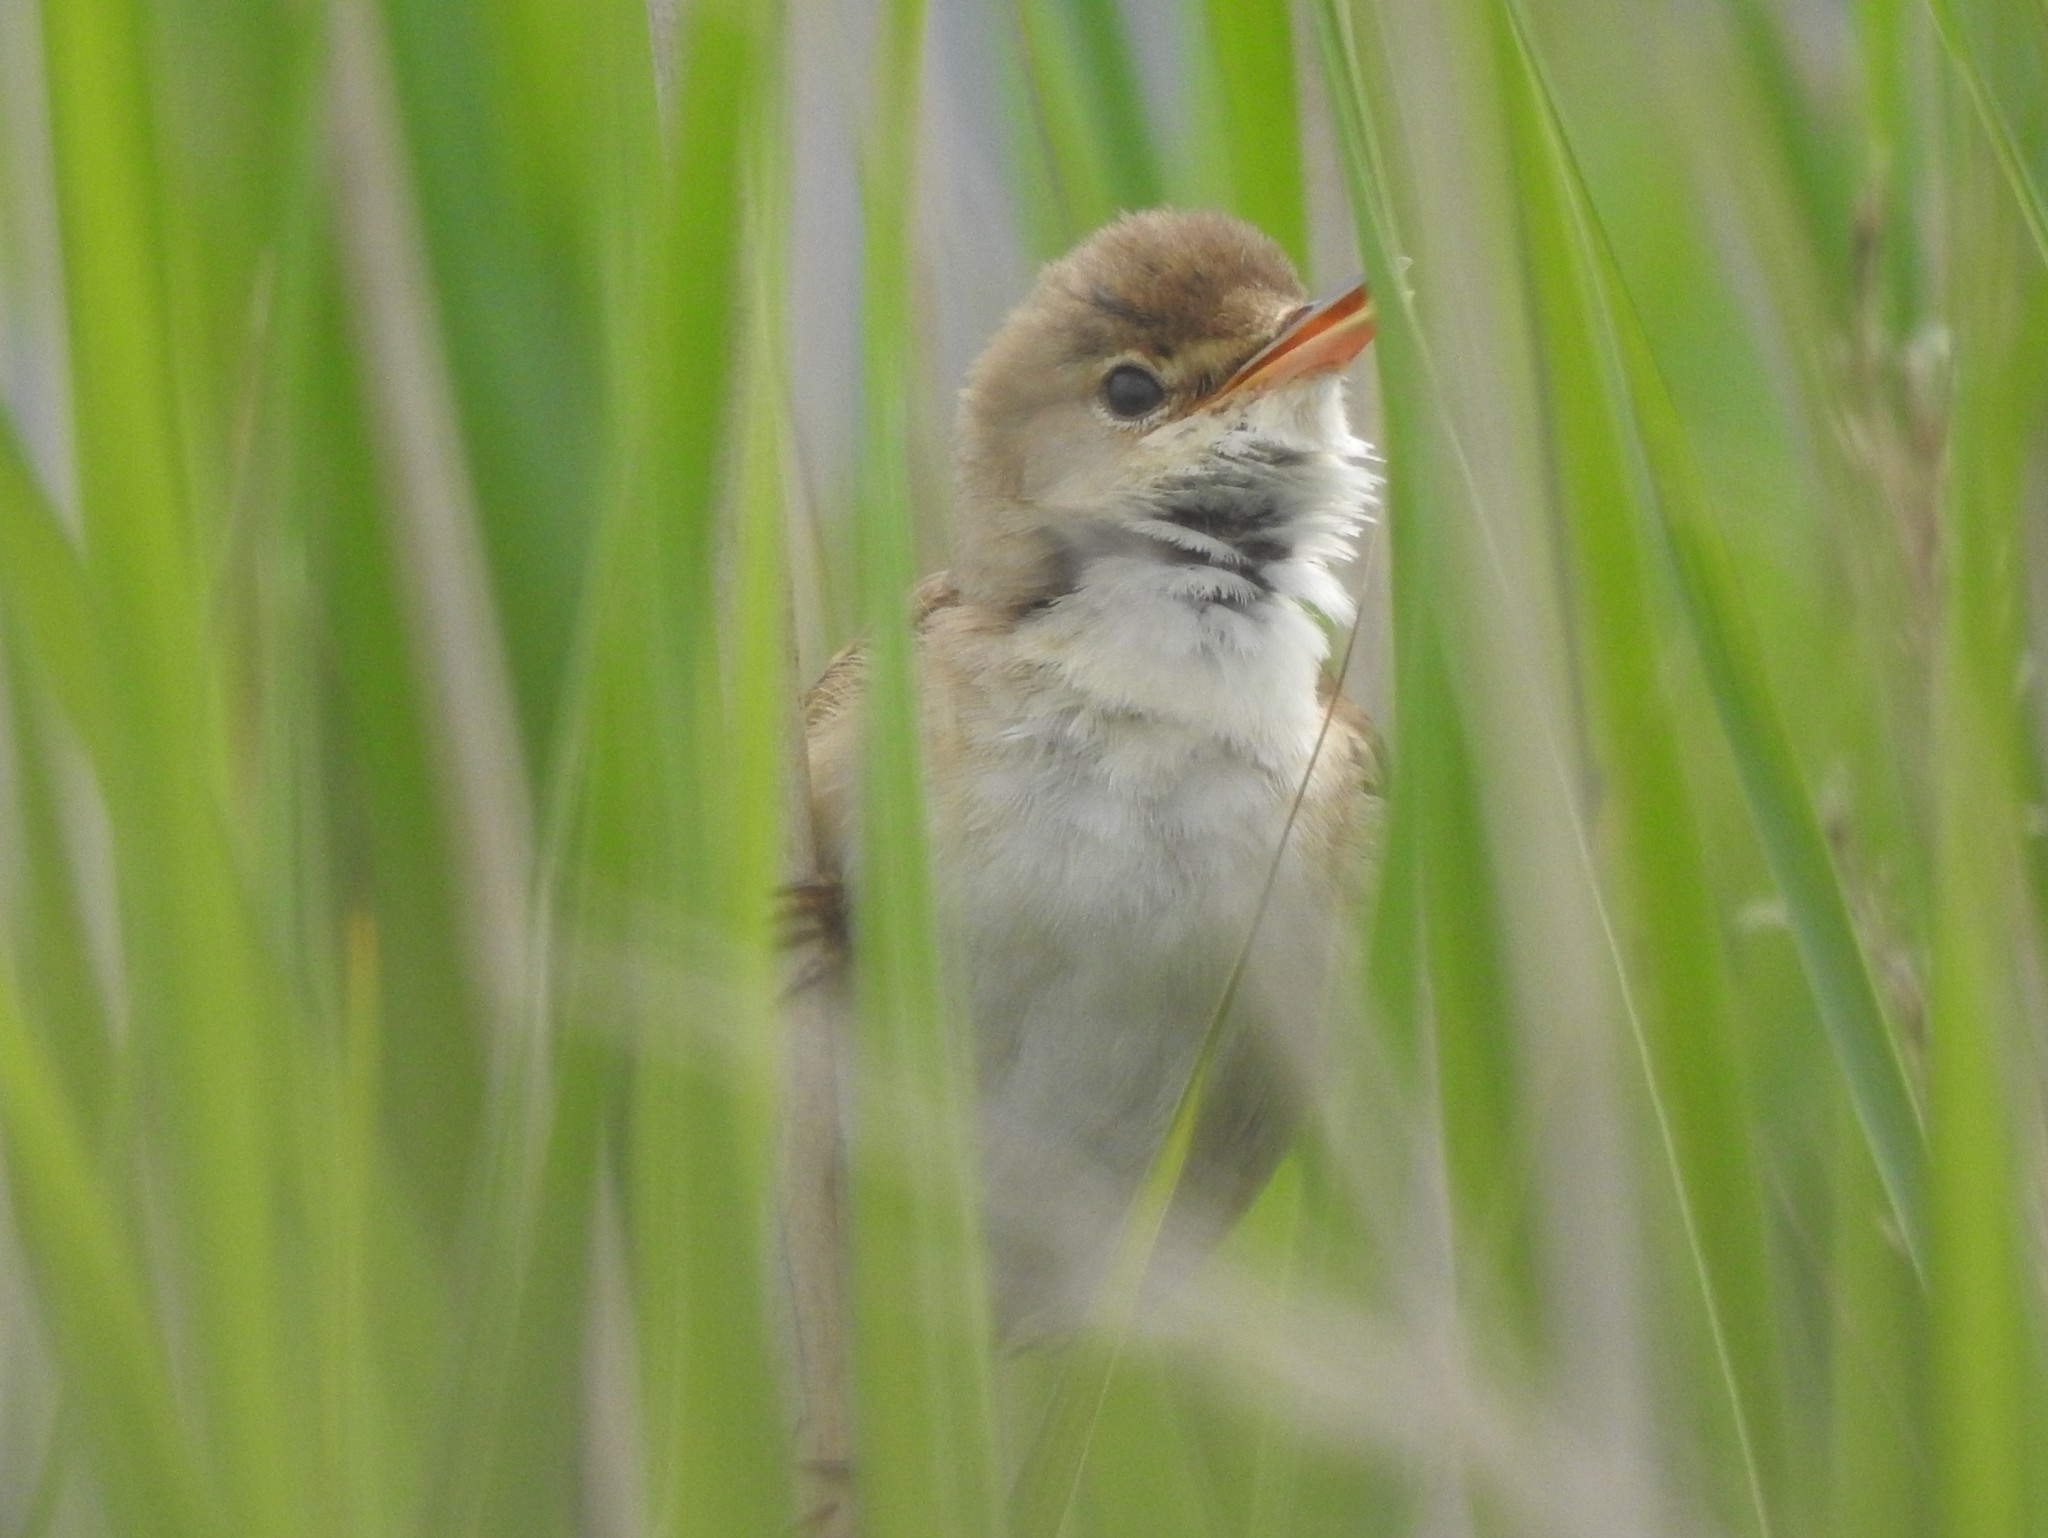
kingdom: Animalia
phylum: Chordata
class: Aves
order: Passeriformes
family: Acrocephalidae
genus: Acrocephalus
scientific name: Acrocephalus scirpaceus
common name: Eurasian reed warbler
